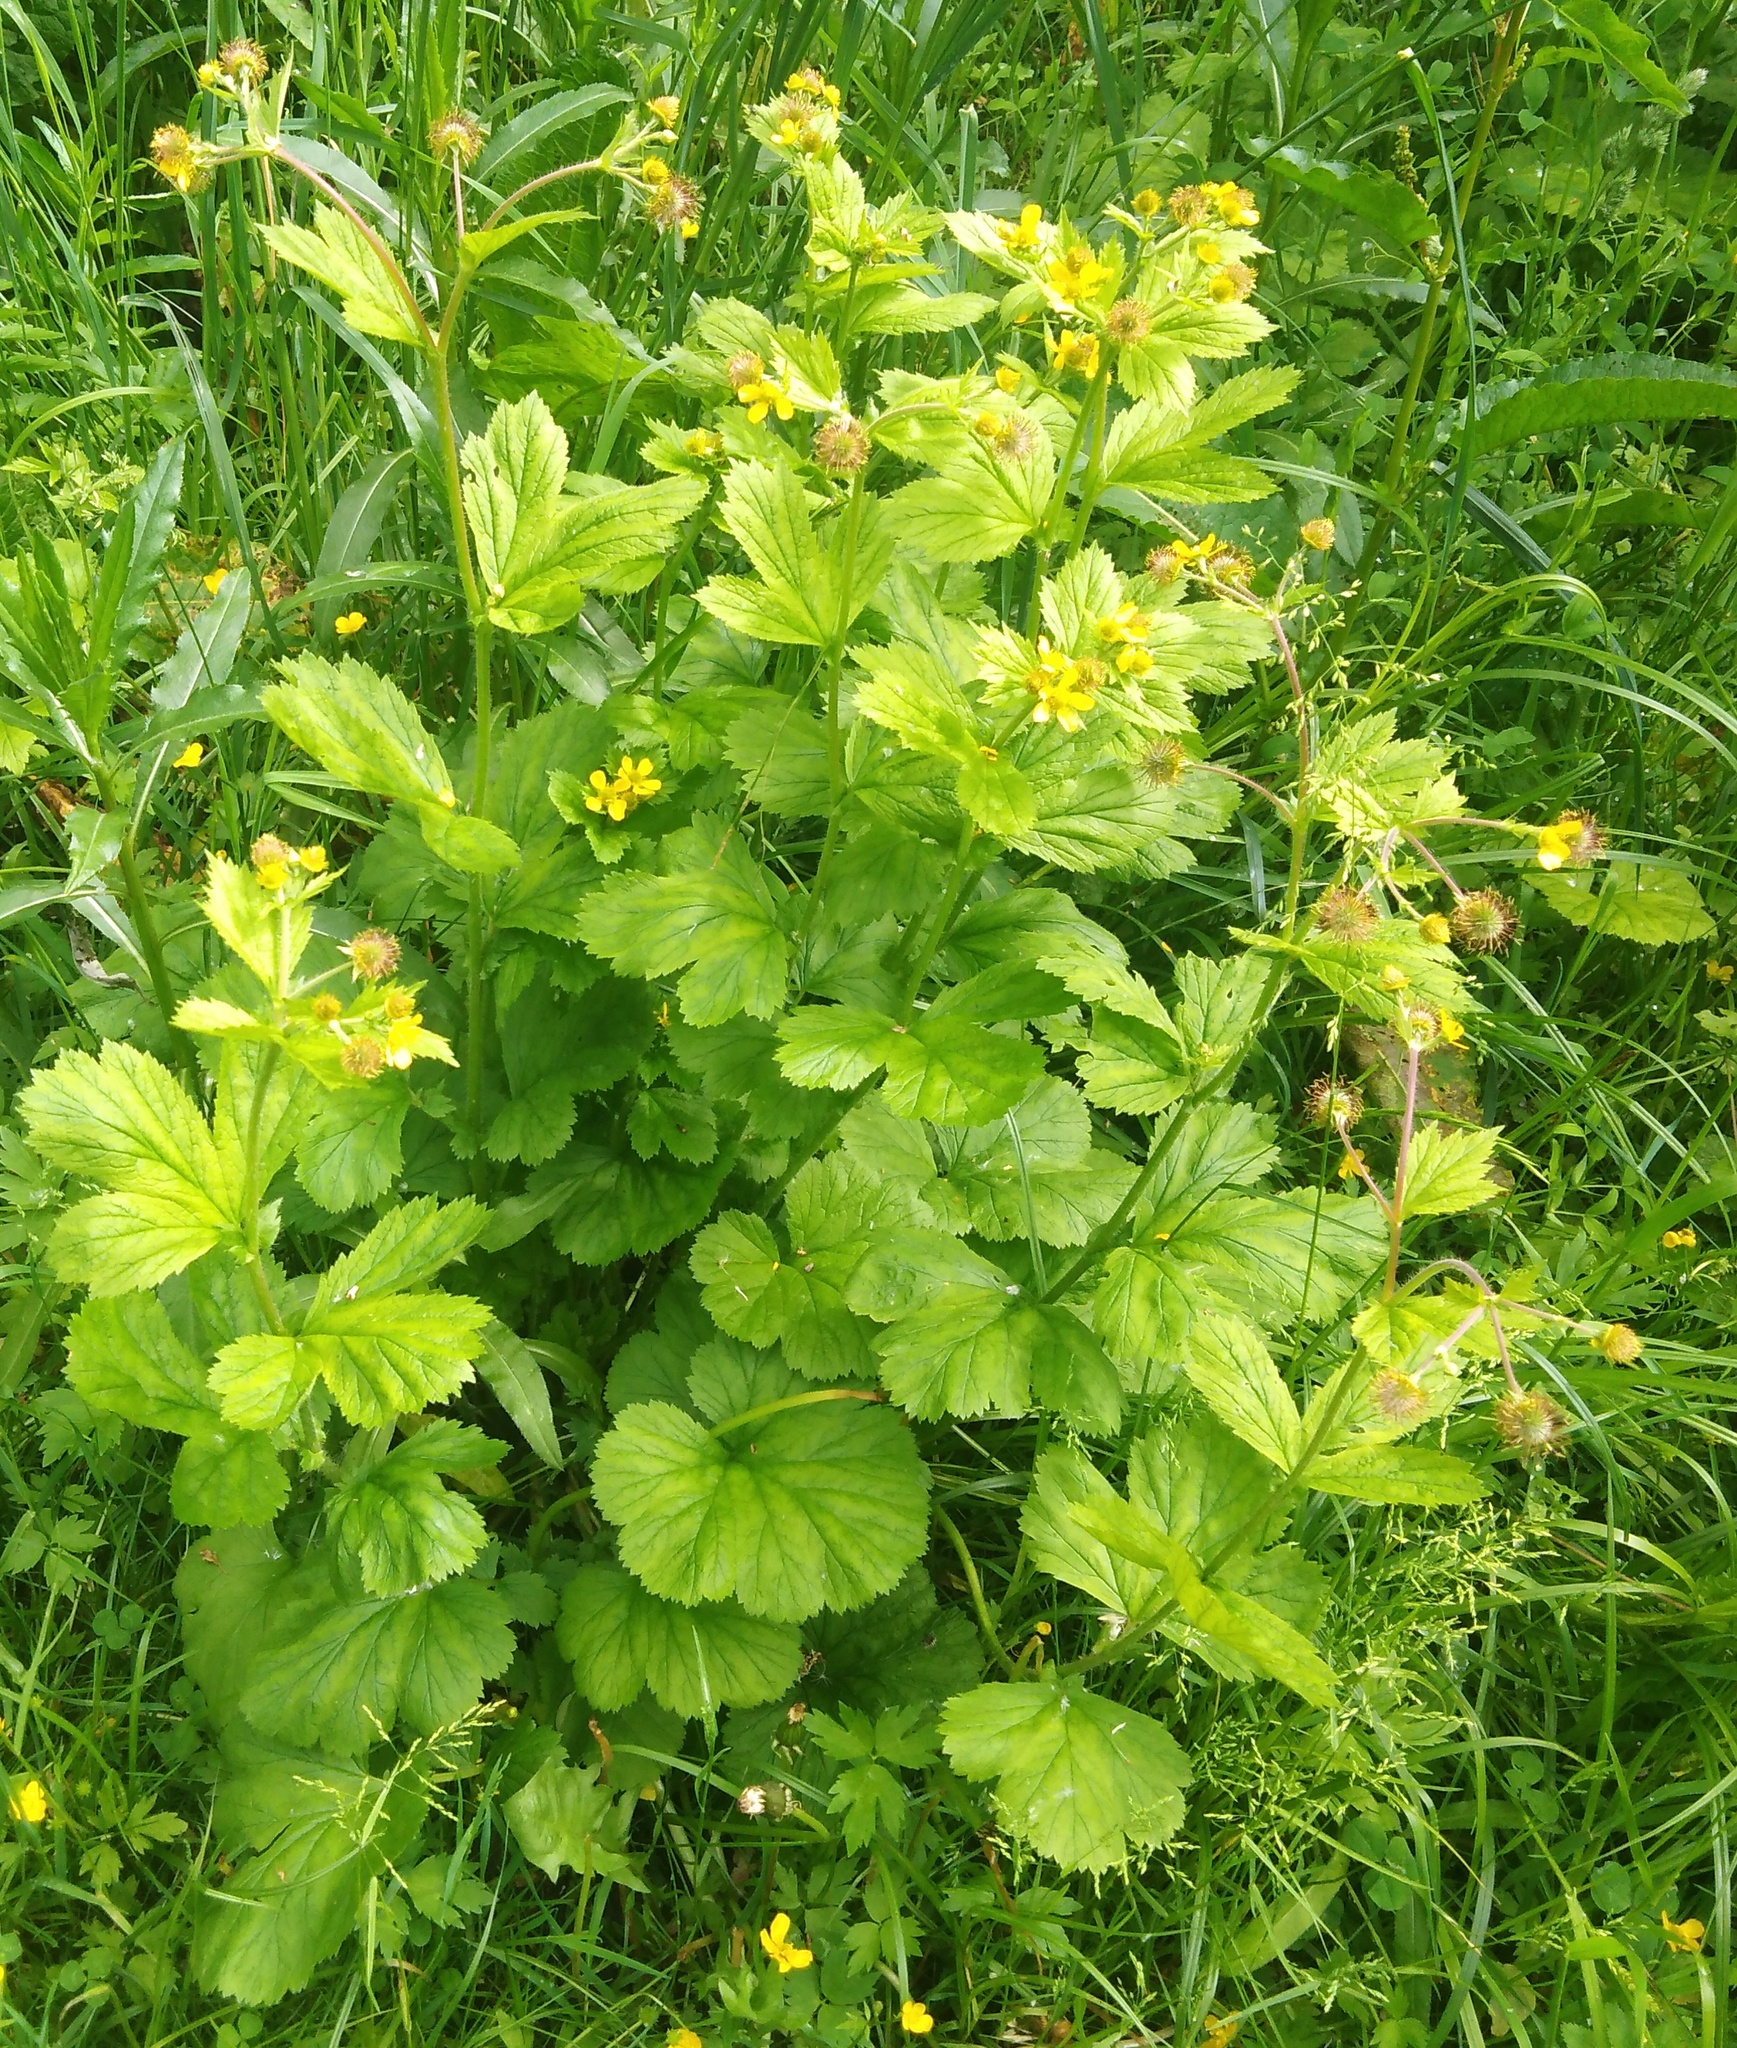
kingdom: Plantae
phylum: Tracheophyta
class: Magnoliopsida
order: Rosales
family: Rosaceae
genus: Geum
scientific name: Geum macrophyllum
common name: Large-leaved avens
